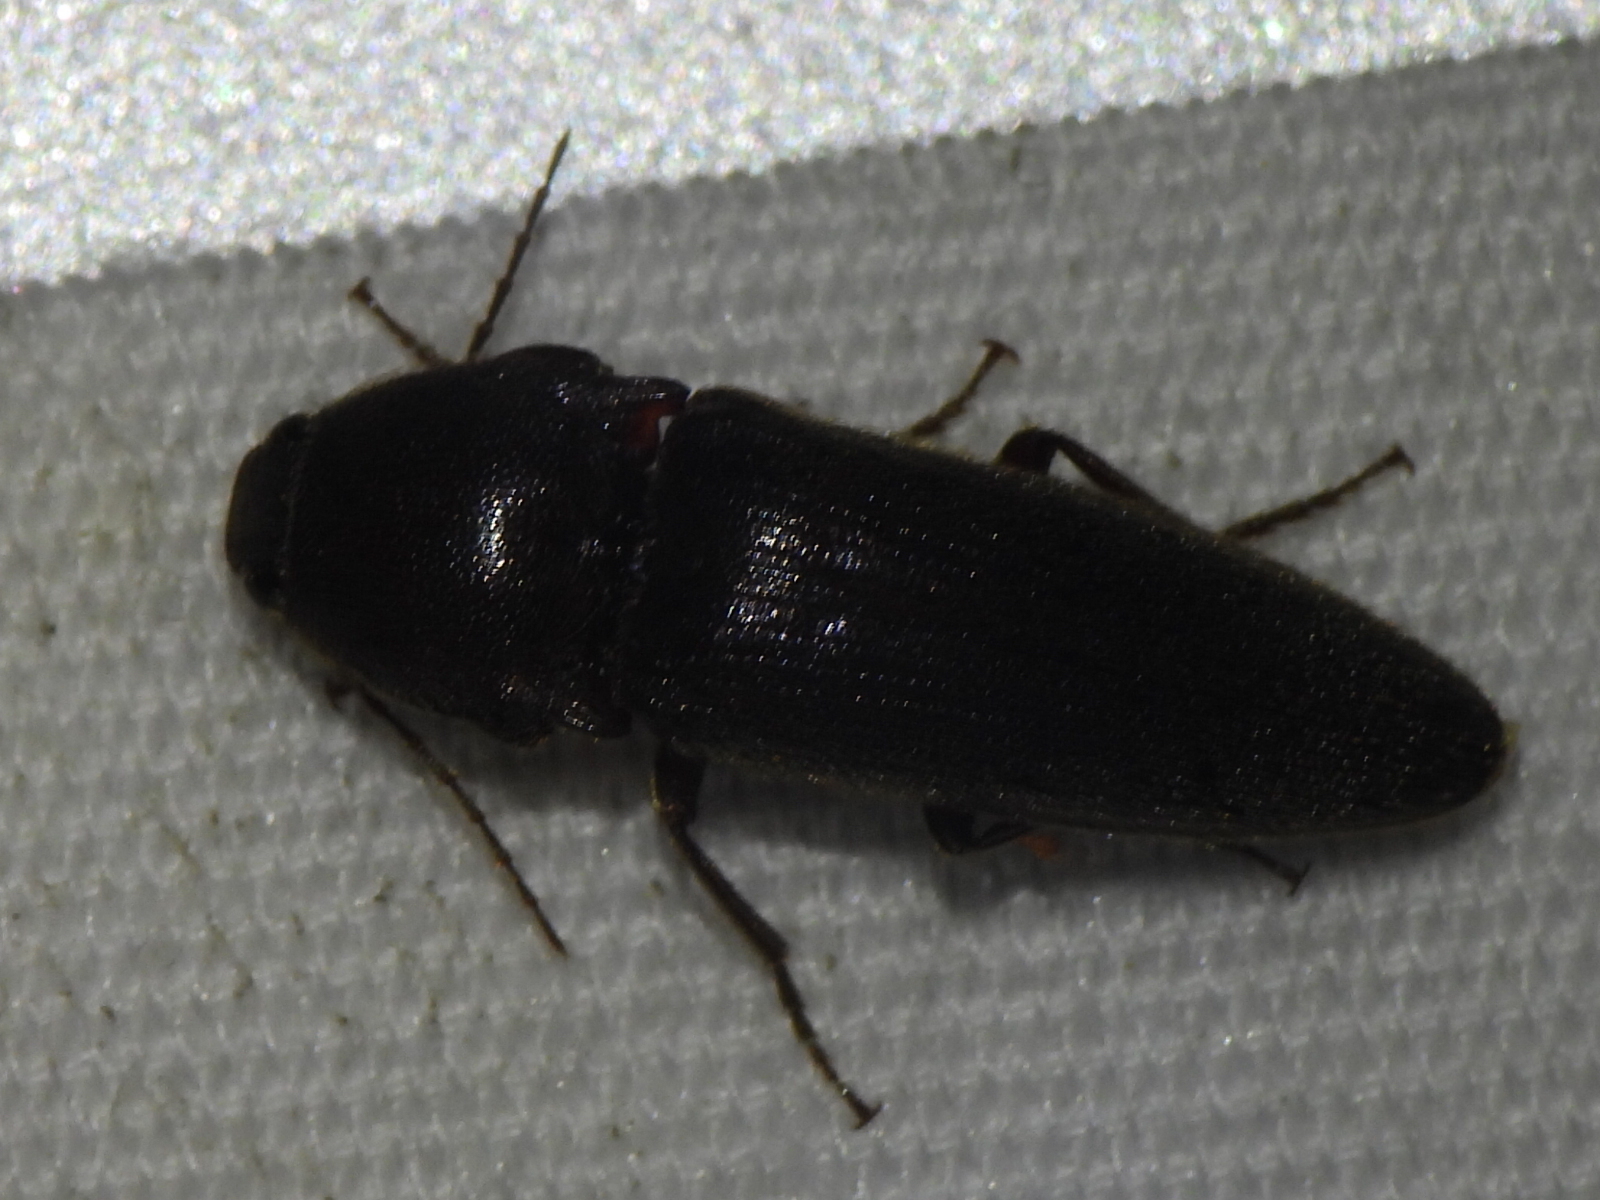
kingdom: Animalia
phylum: Arthropoda
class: Insecta
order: Coleoptera
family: Elateridae
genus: Melanotus
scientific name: Melanotus
